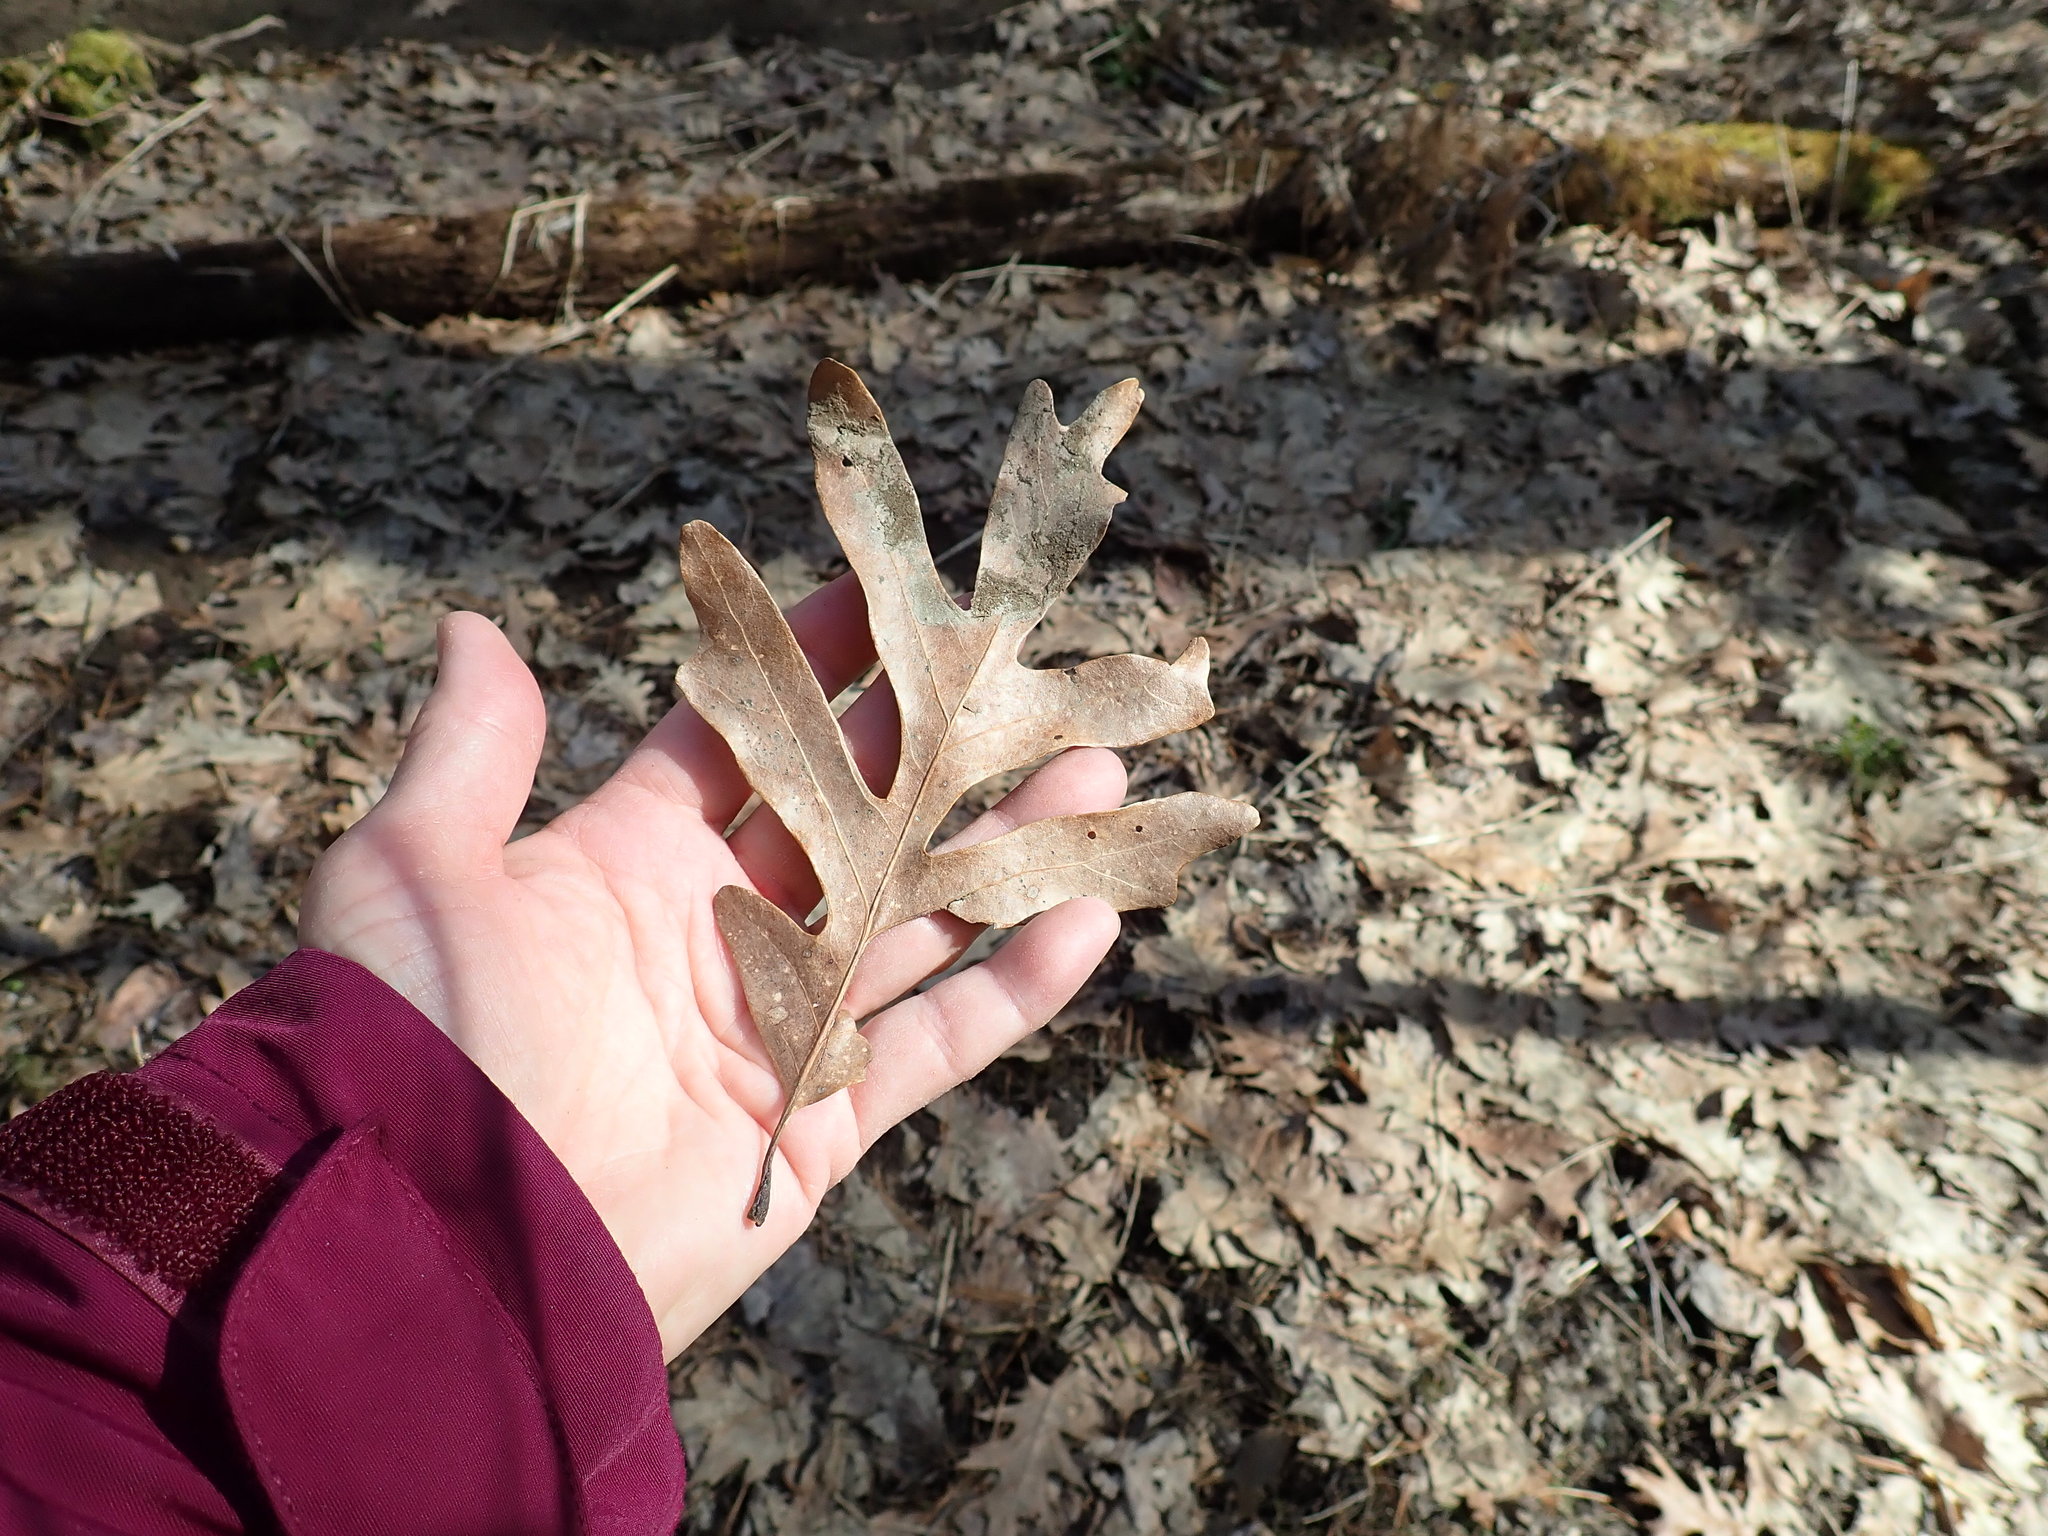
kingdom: Plantae
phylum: Tracheophyta
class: Magnoliopsida
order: Fagales
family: Fagaceae
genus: Quercus
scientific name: Quercus alba
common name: White oak
